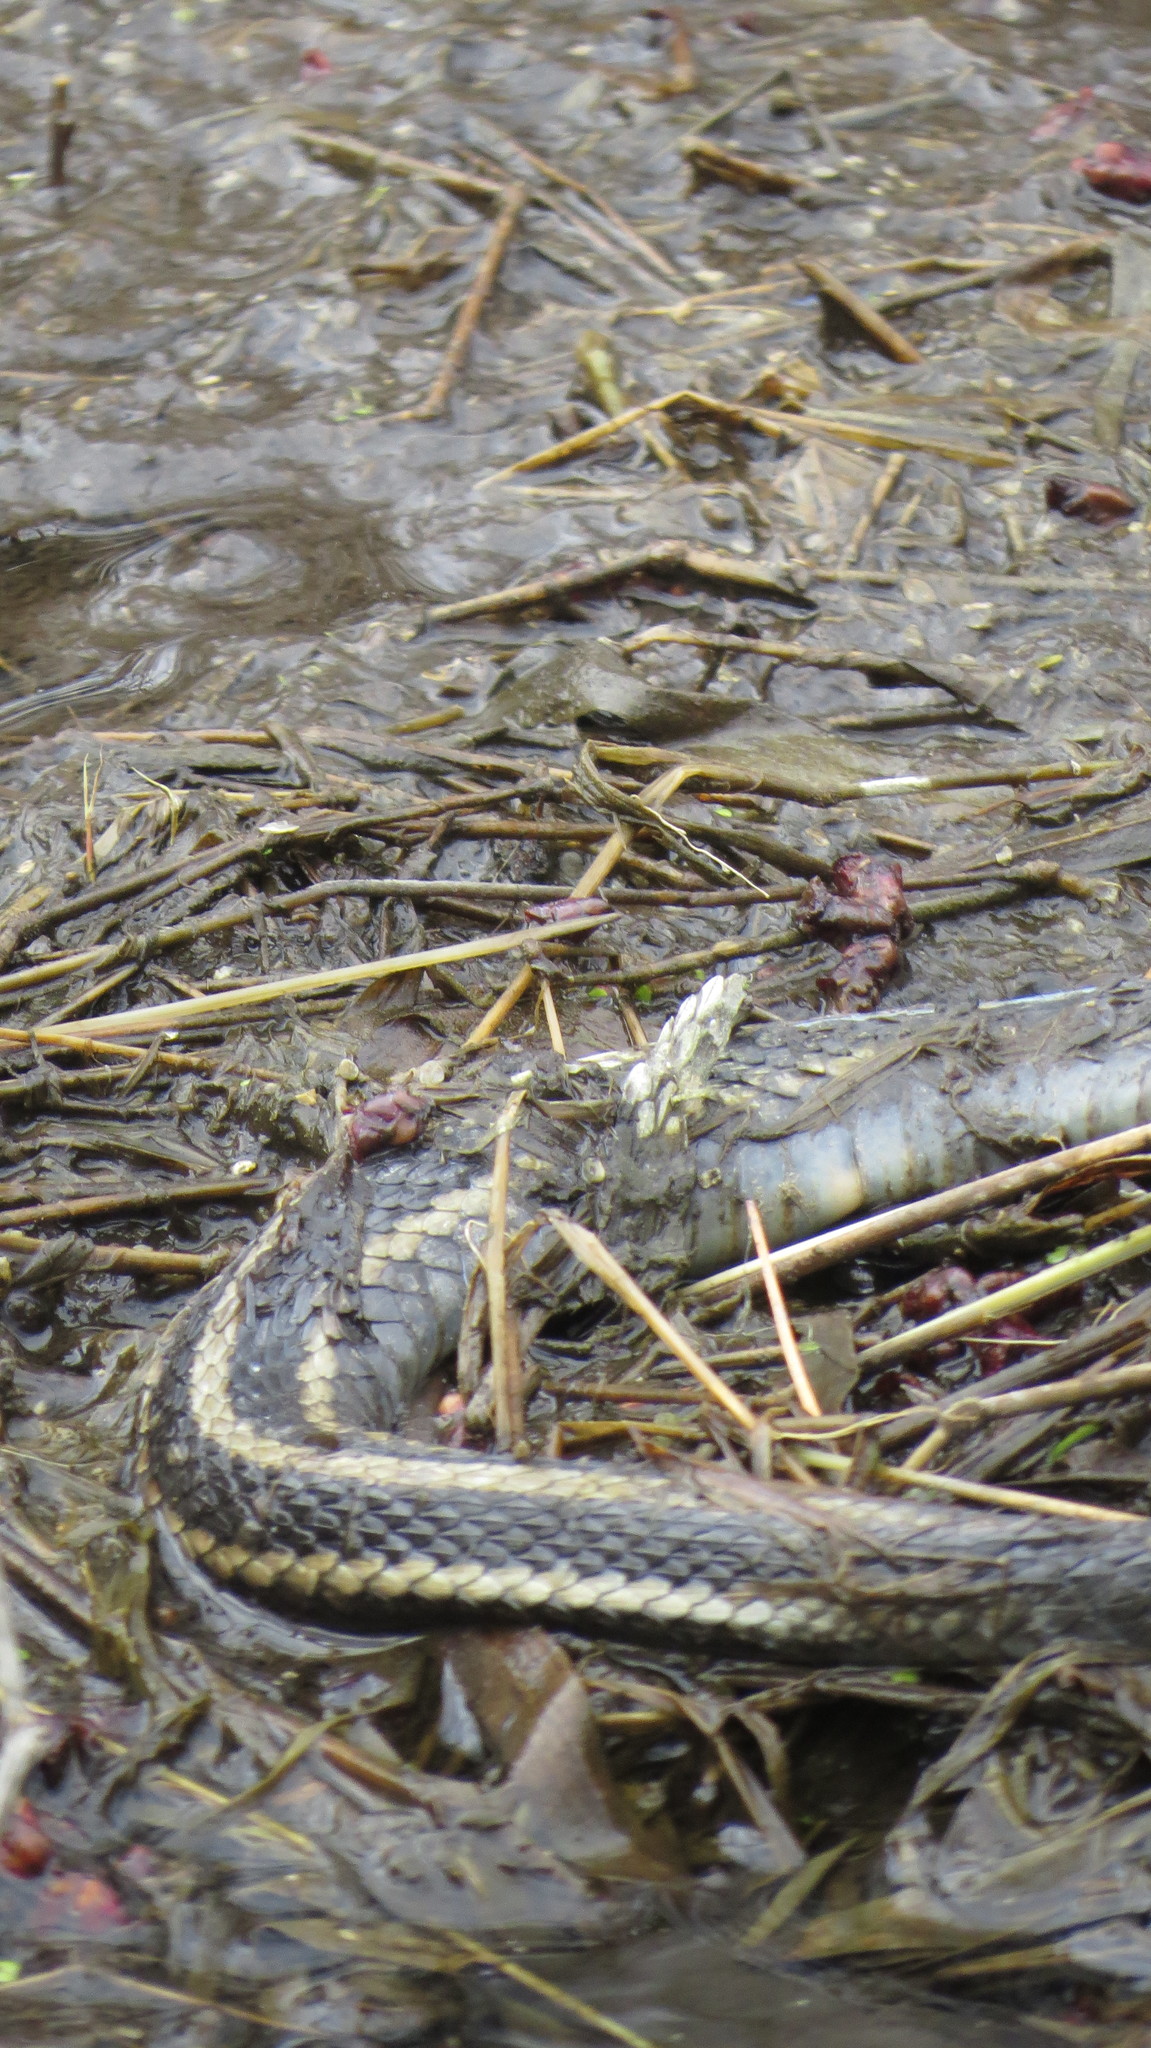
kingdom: Animalia
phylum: Chordata
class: Squamata
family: Colubridae
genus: Thamnophis
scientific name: Thamnophis sirtalis
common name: Common garter snake
